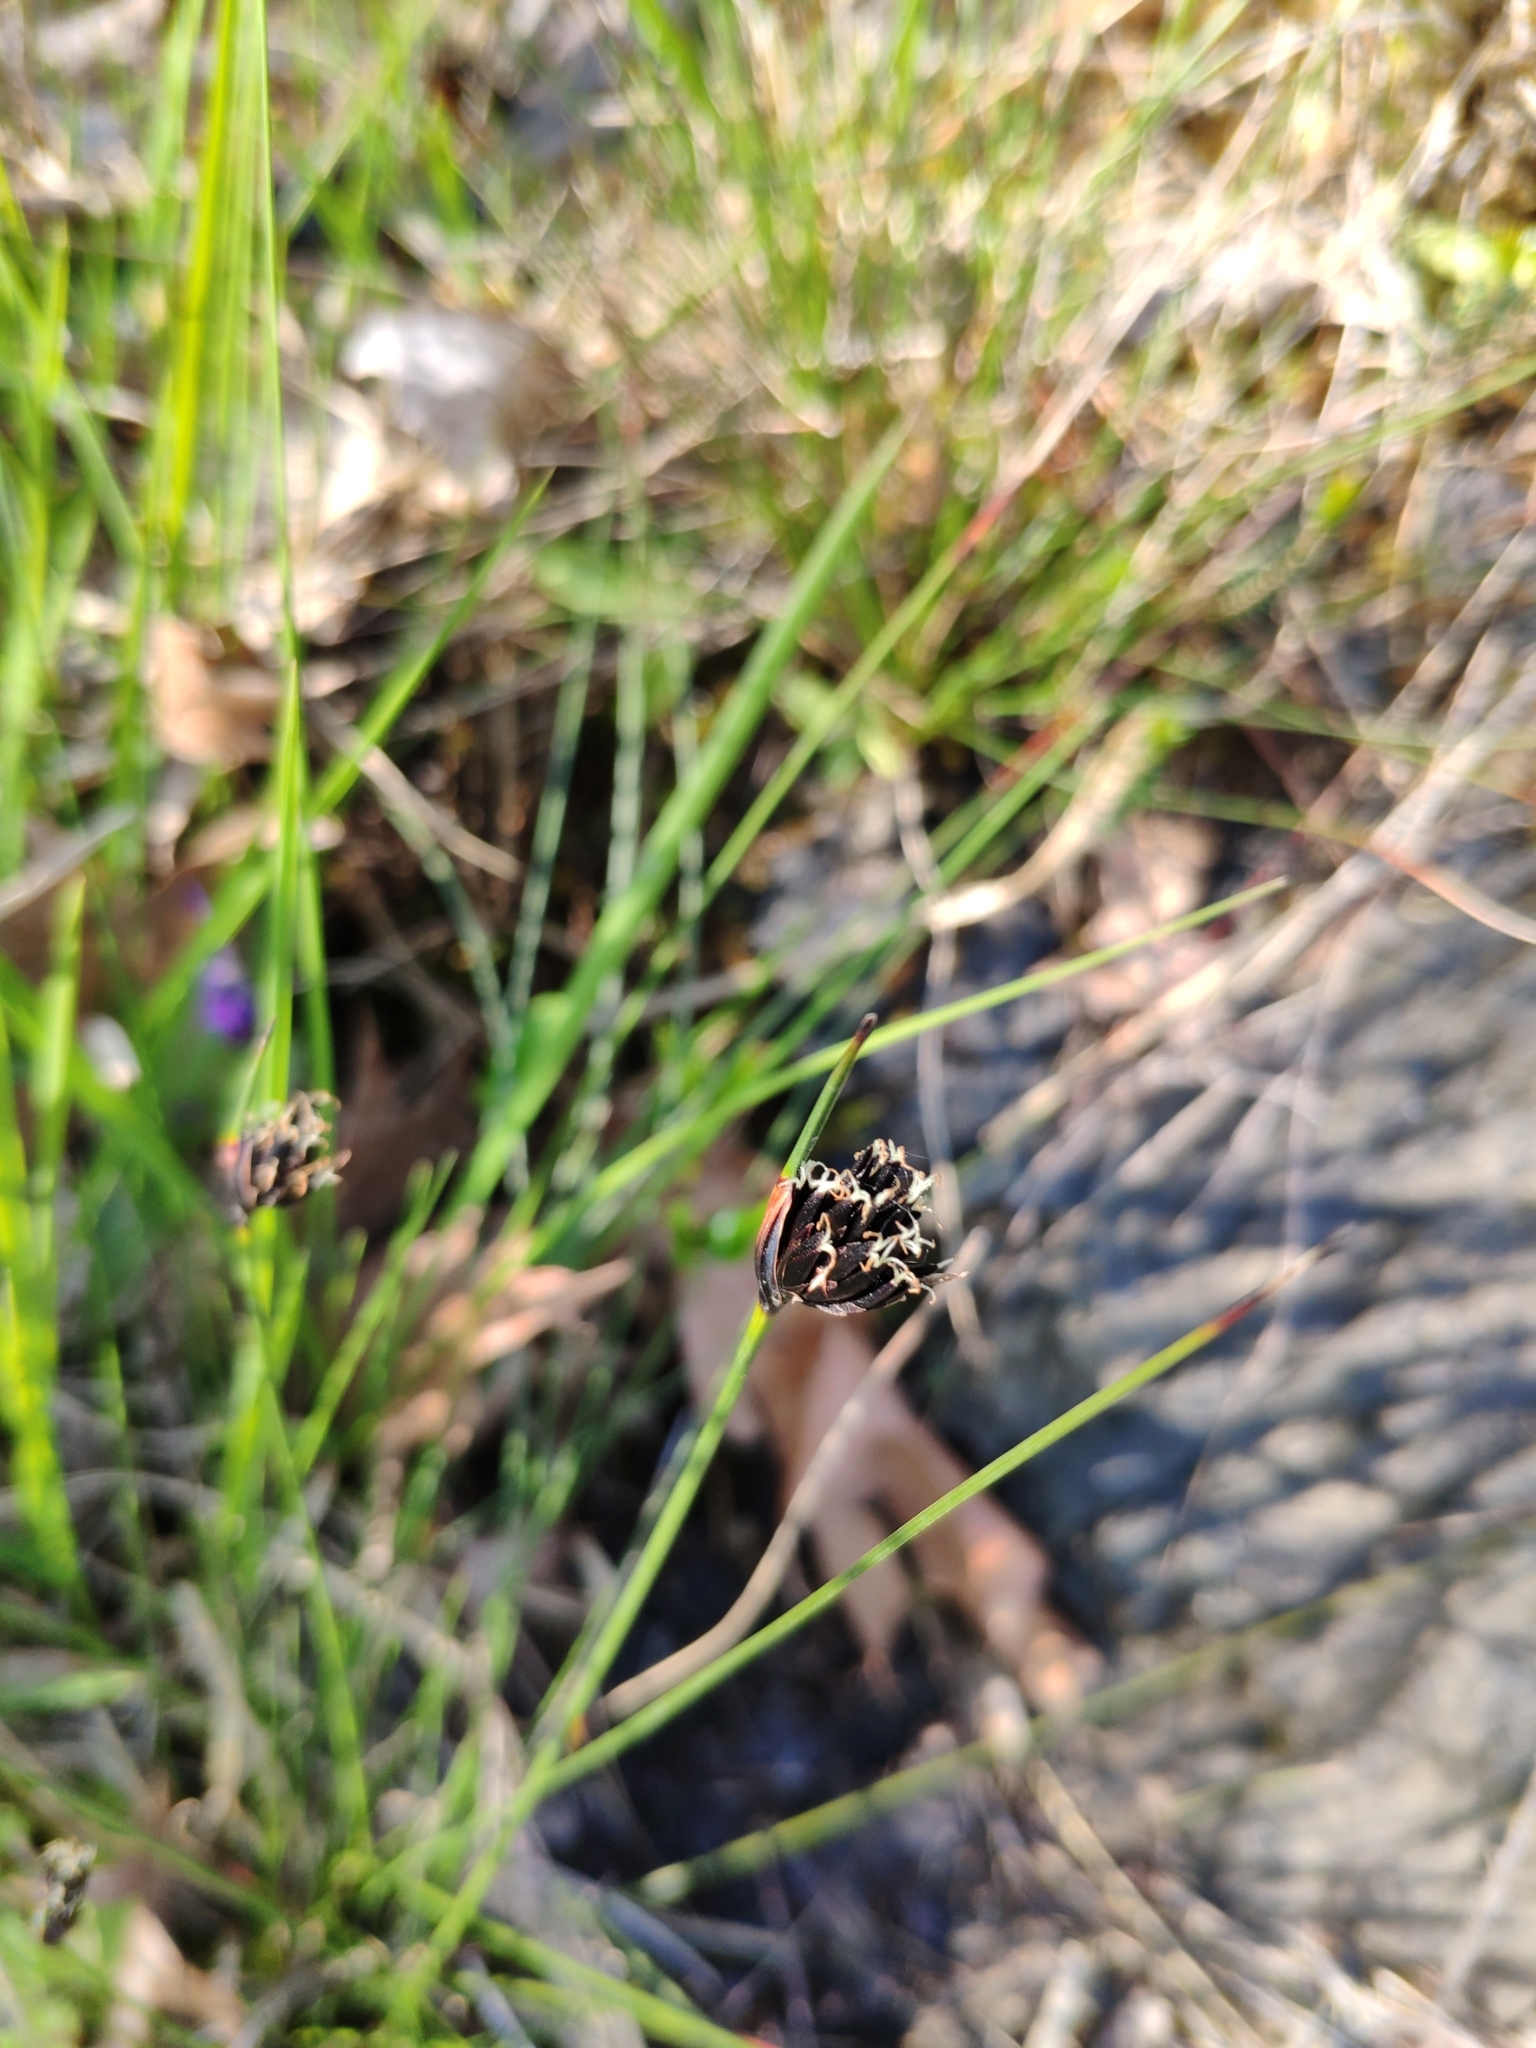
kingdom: Plantae
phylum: Tracheophyta
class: Liliopsida
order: Poales
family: Cyperaceae
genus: Schoenus
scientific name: Schoenus nigricans
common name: Black bog-rush
